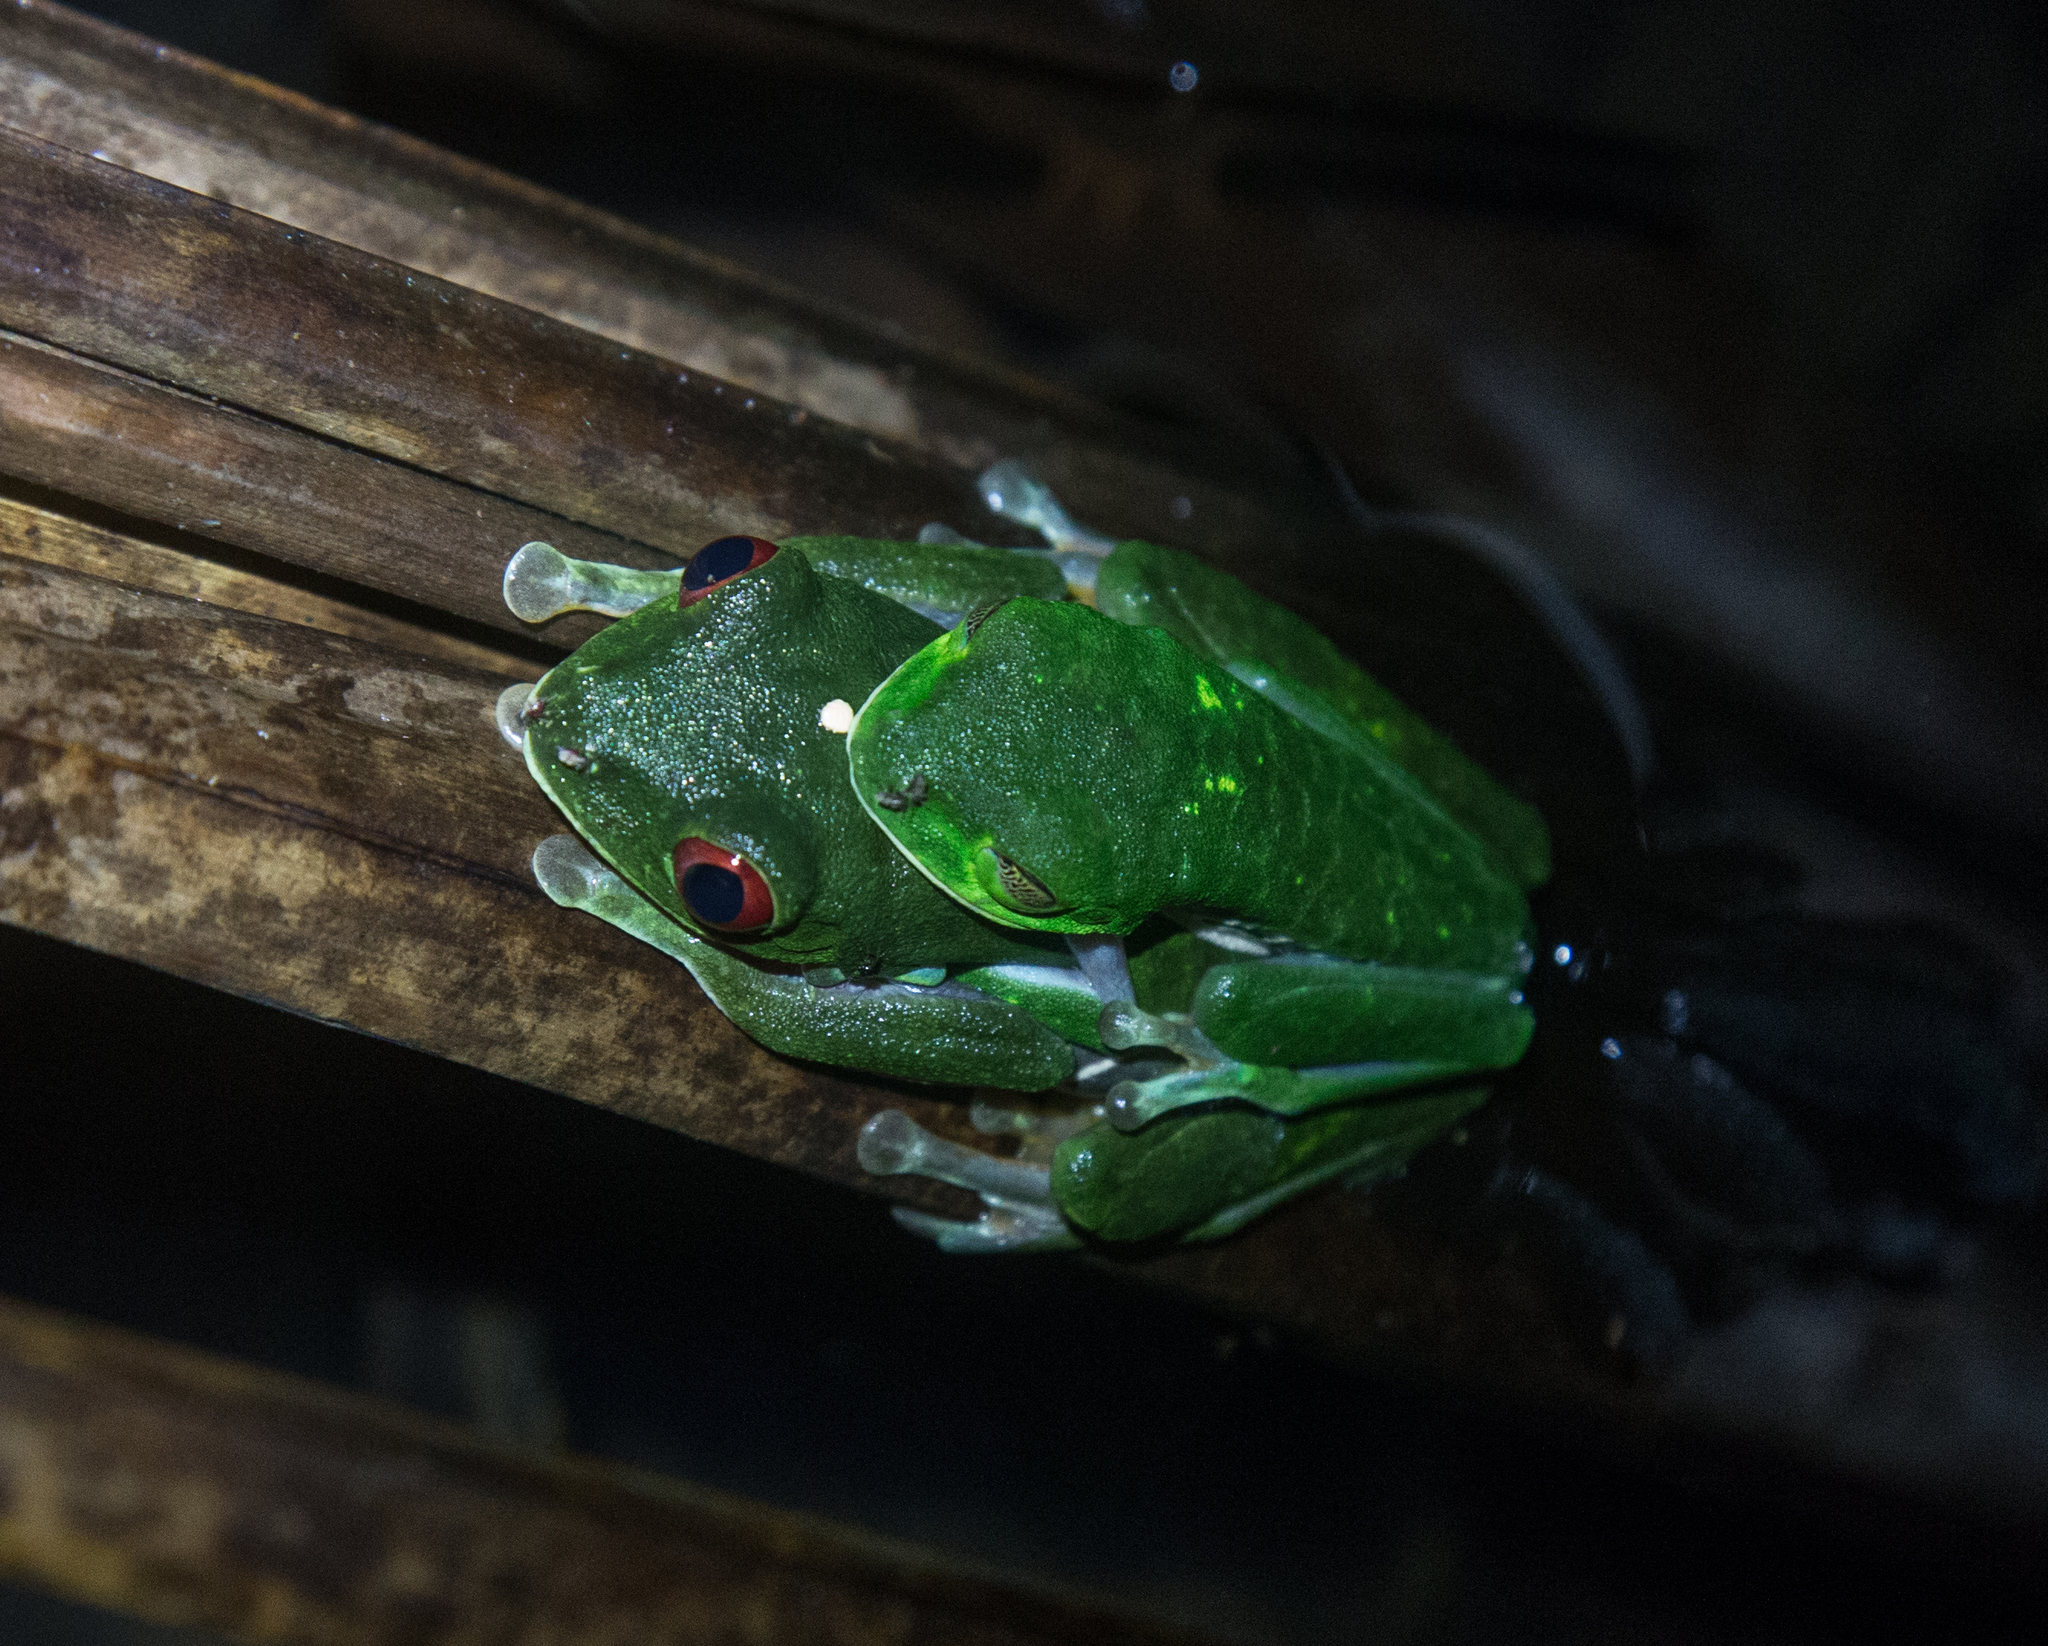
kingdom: Animalia
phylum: Chordata
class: Amphibia
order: Anura
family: Phyllomedusidae
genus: Agalychnis
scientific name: Agalychnis callidryas
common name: Red-eyed treefrog
